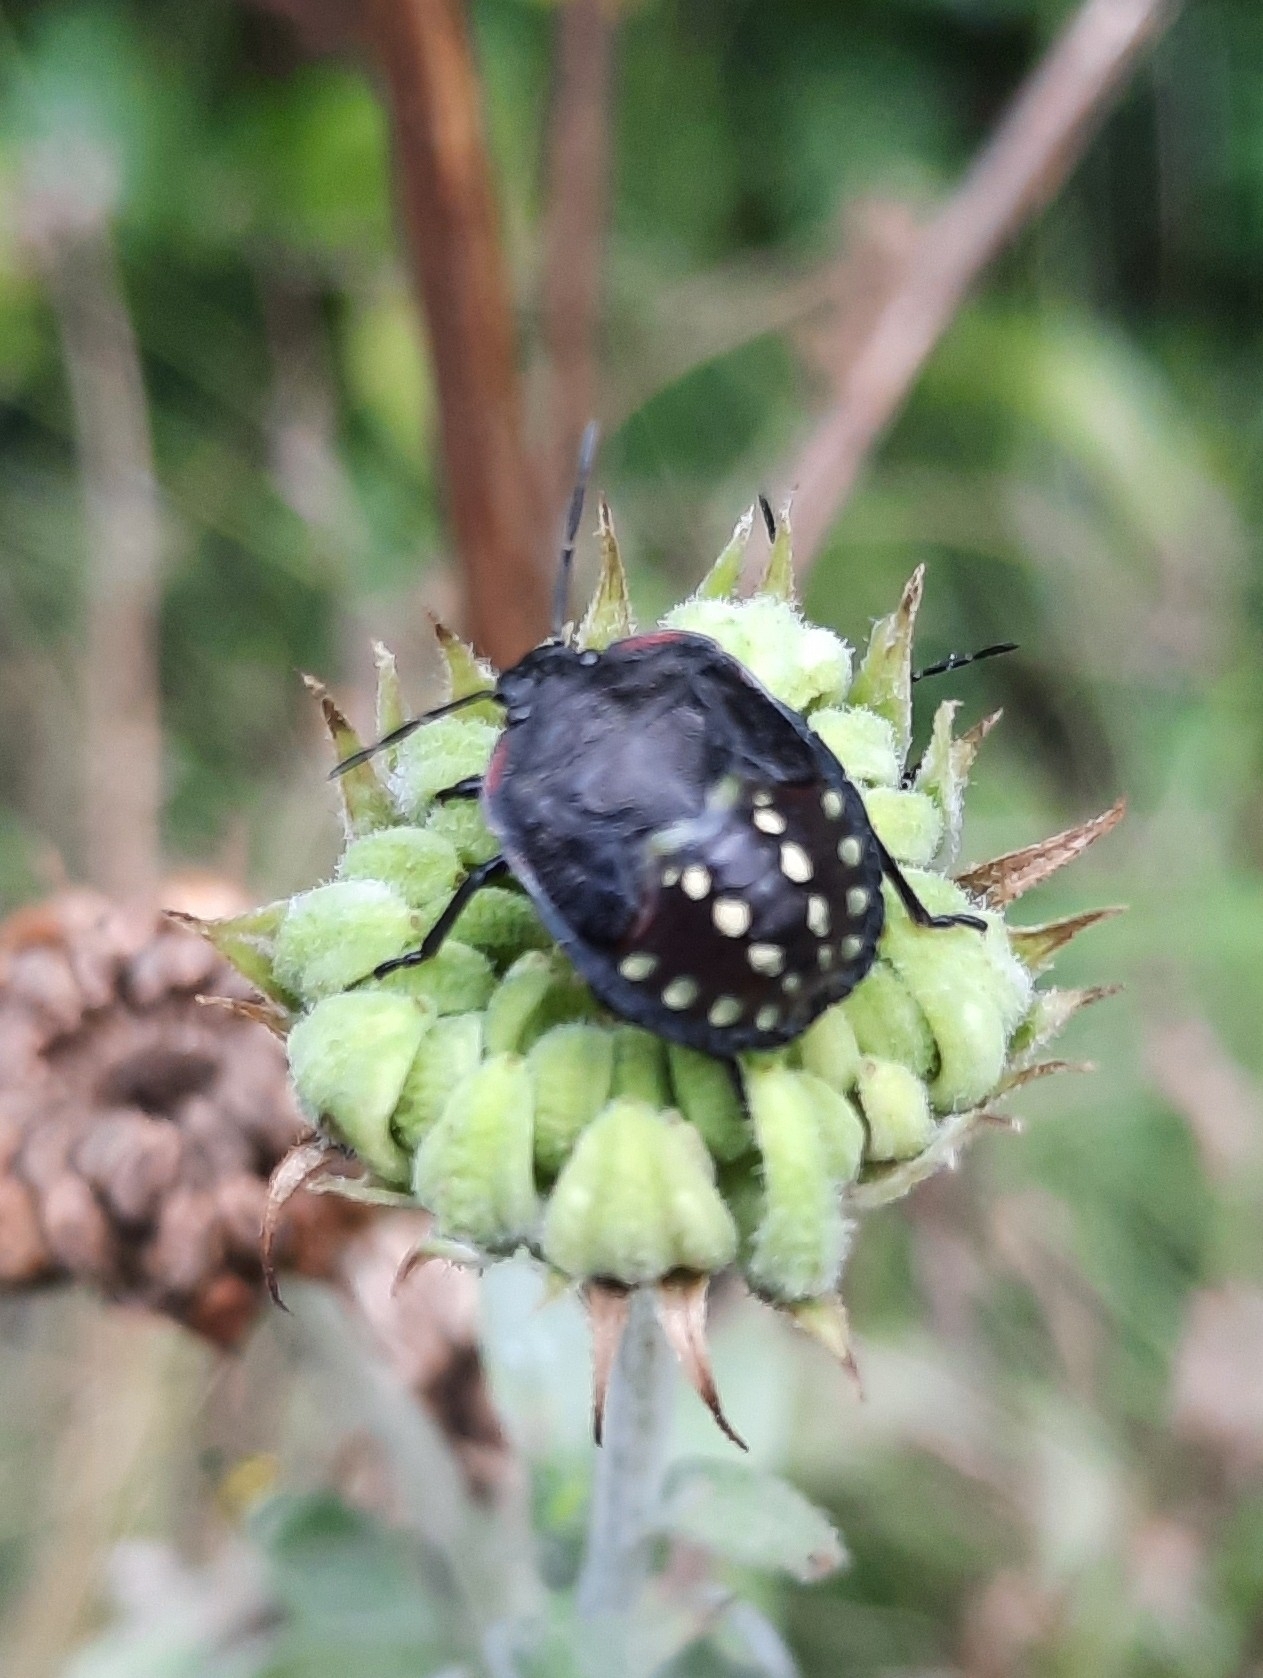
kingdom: Animalia
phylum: Arthropoda
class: Insecta
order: Hemiptera
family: Pentatomidae
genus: Nezara
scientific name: Nezara viridula
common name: Southern green stink bug
